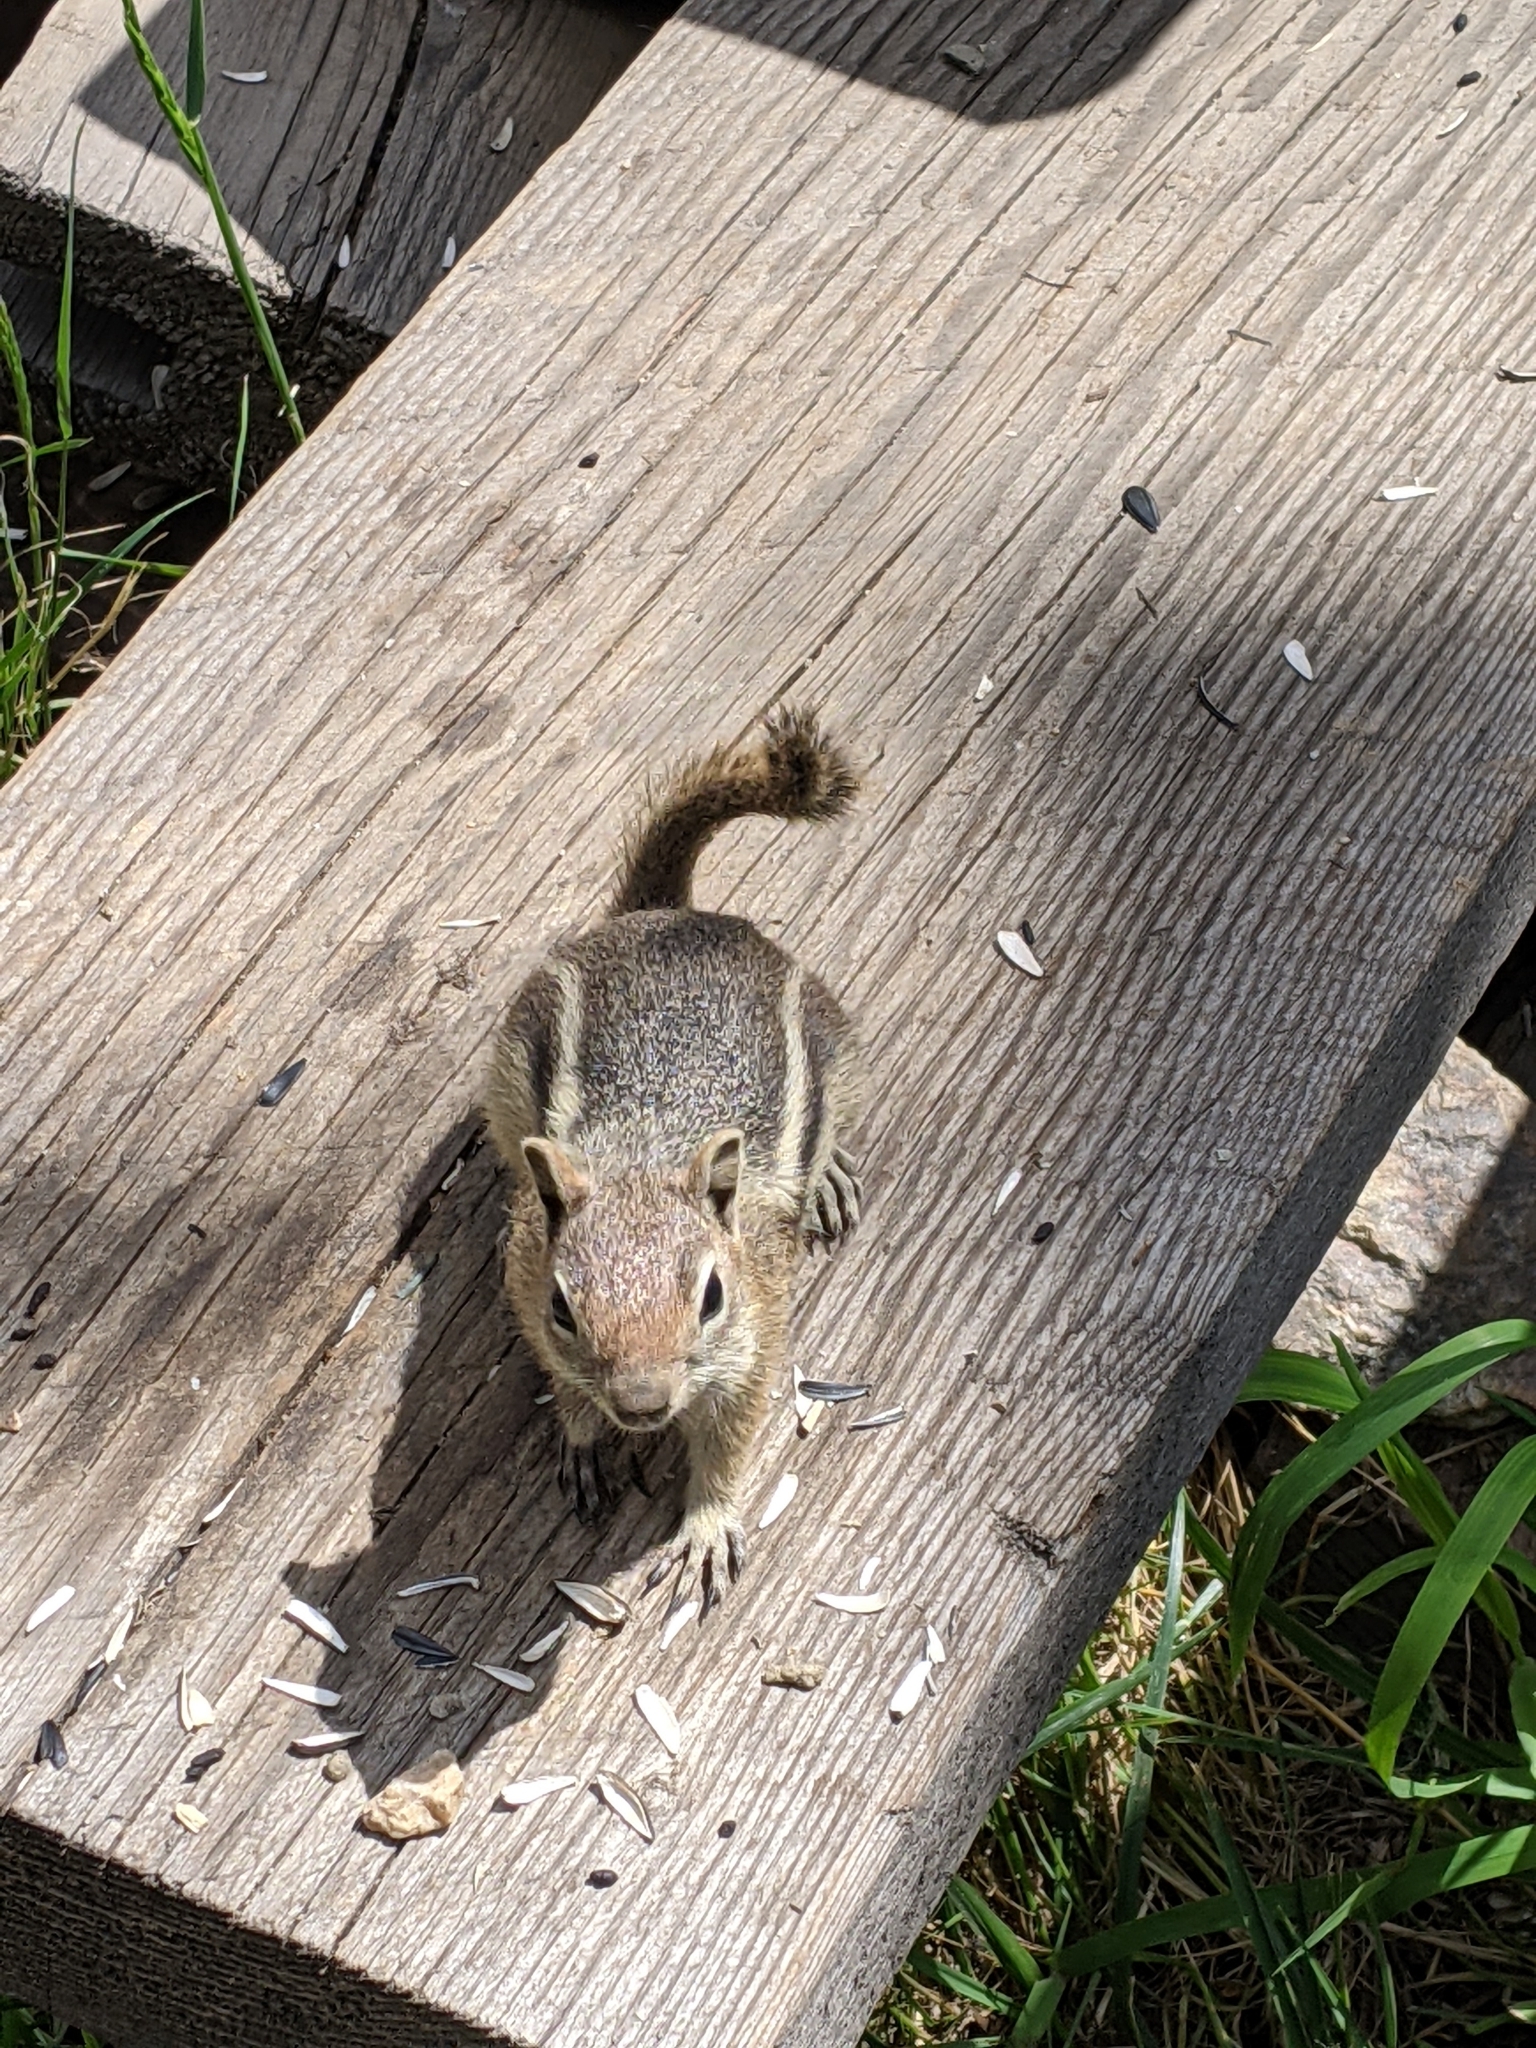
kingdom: Animalia
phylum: Chordata
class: Mammalia
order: Rodentia
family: Sciuridae
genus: Callospermophilus
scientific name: Callospermophilus lateralis
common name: Golden-mantled ground squirrel
